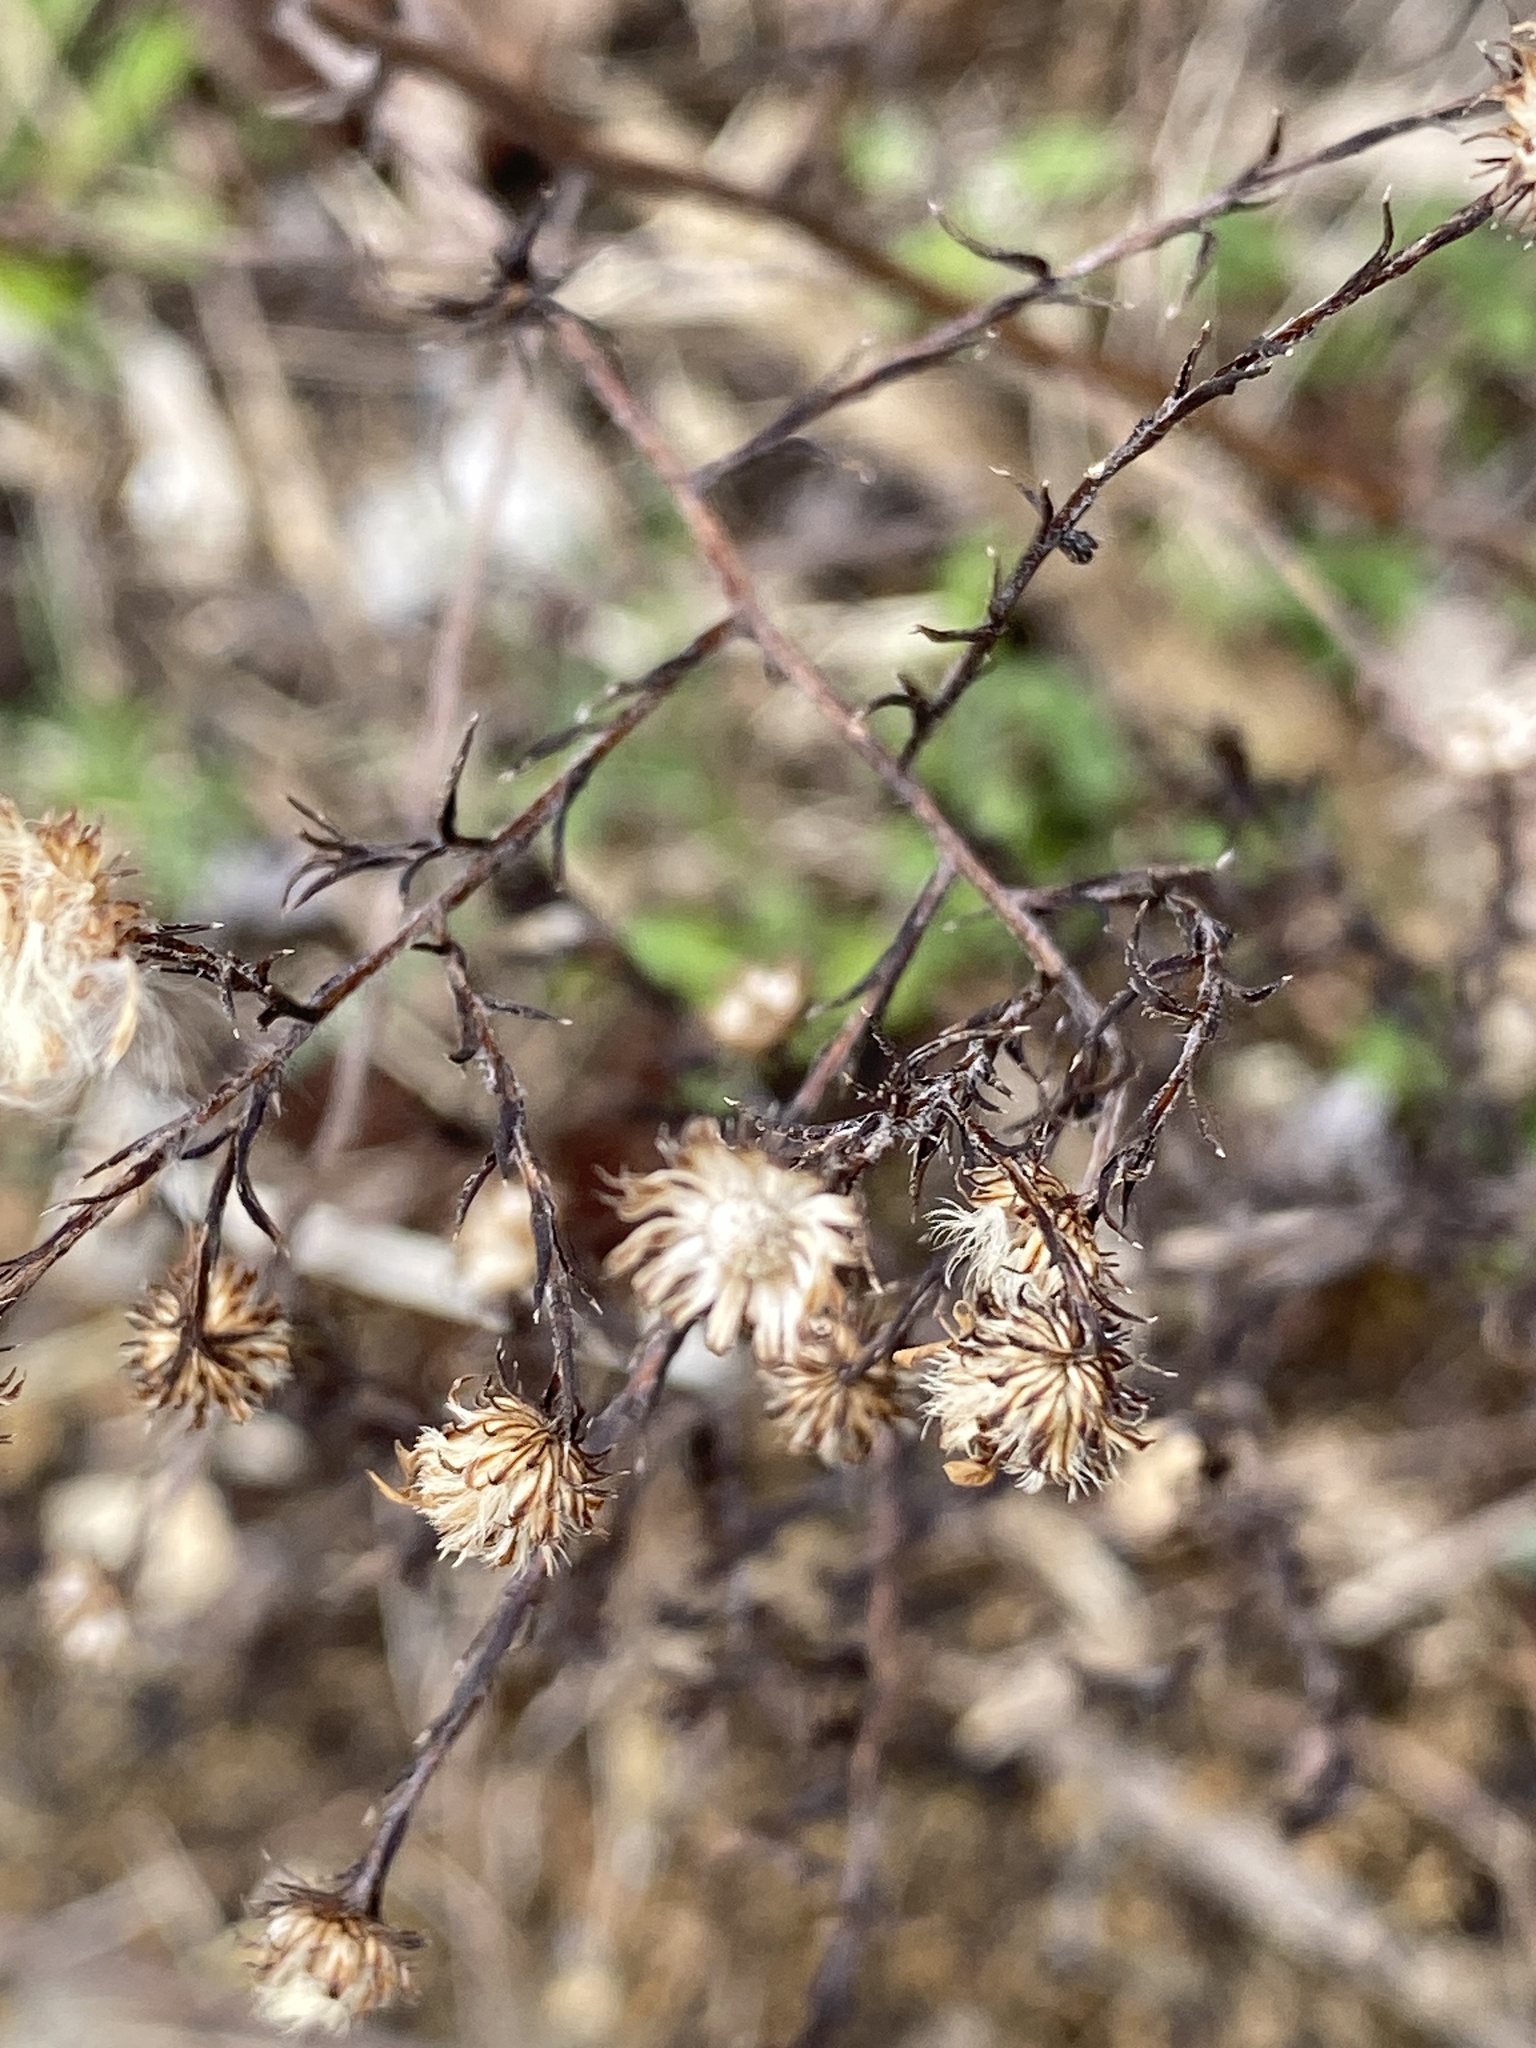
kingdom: Plantae
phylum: Tracheophyta
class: Magnoliopsida
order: Asterales
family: Asteraceae
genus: Symphyotrichum
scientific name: Symphyotrichum pilosum
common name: Awl aster
